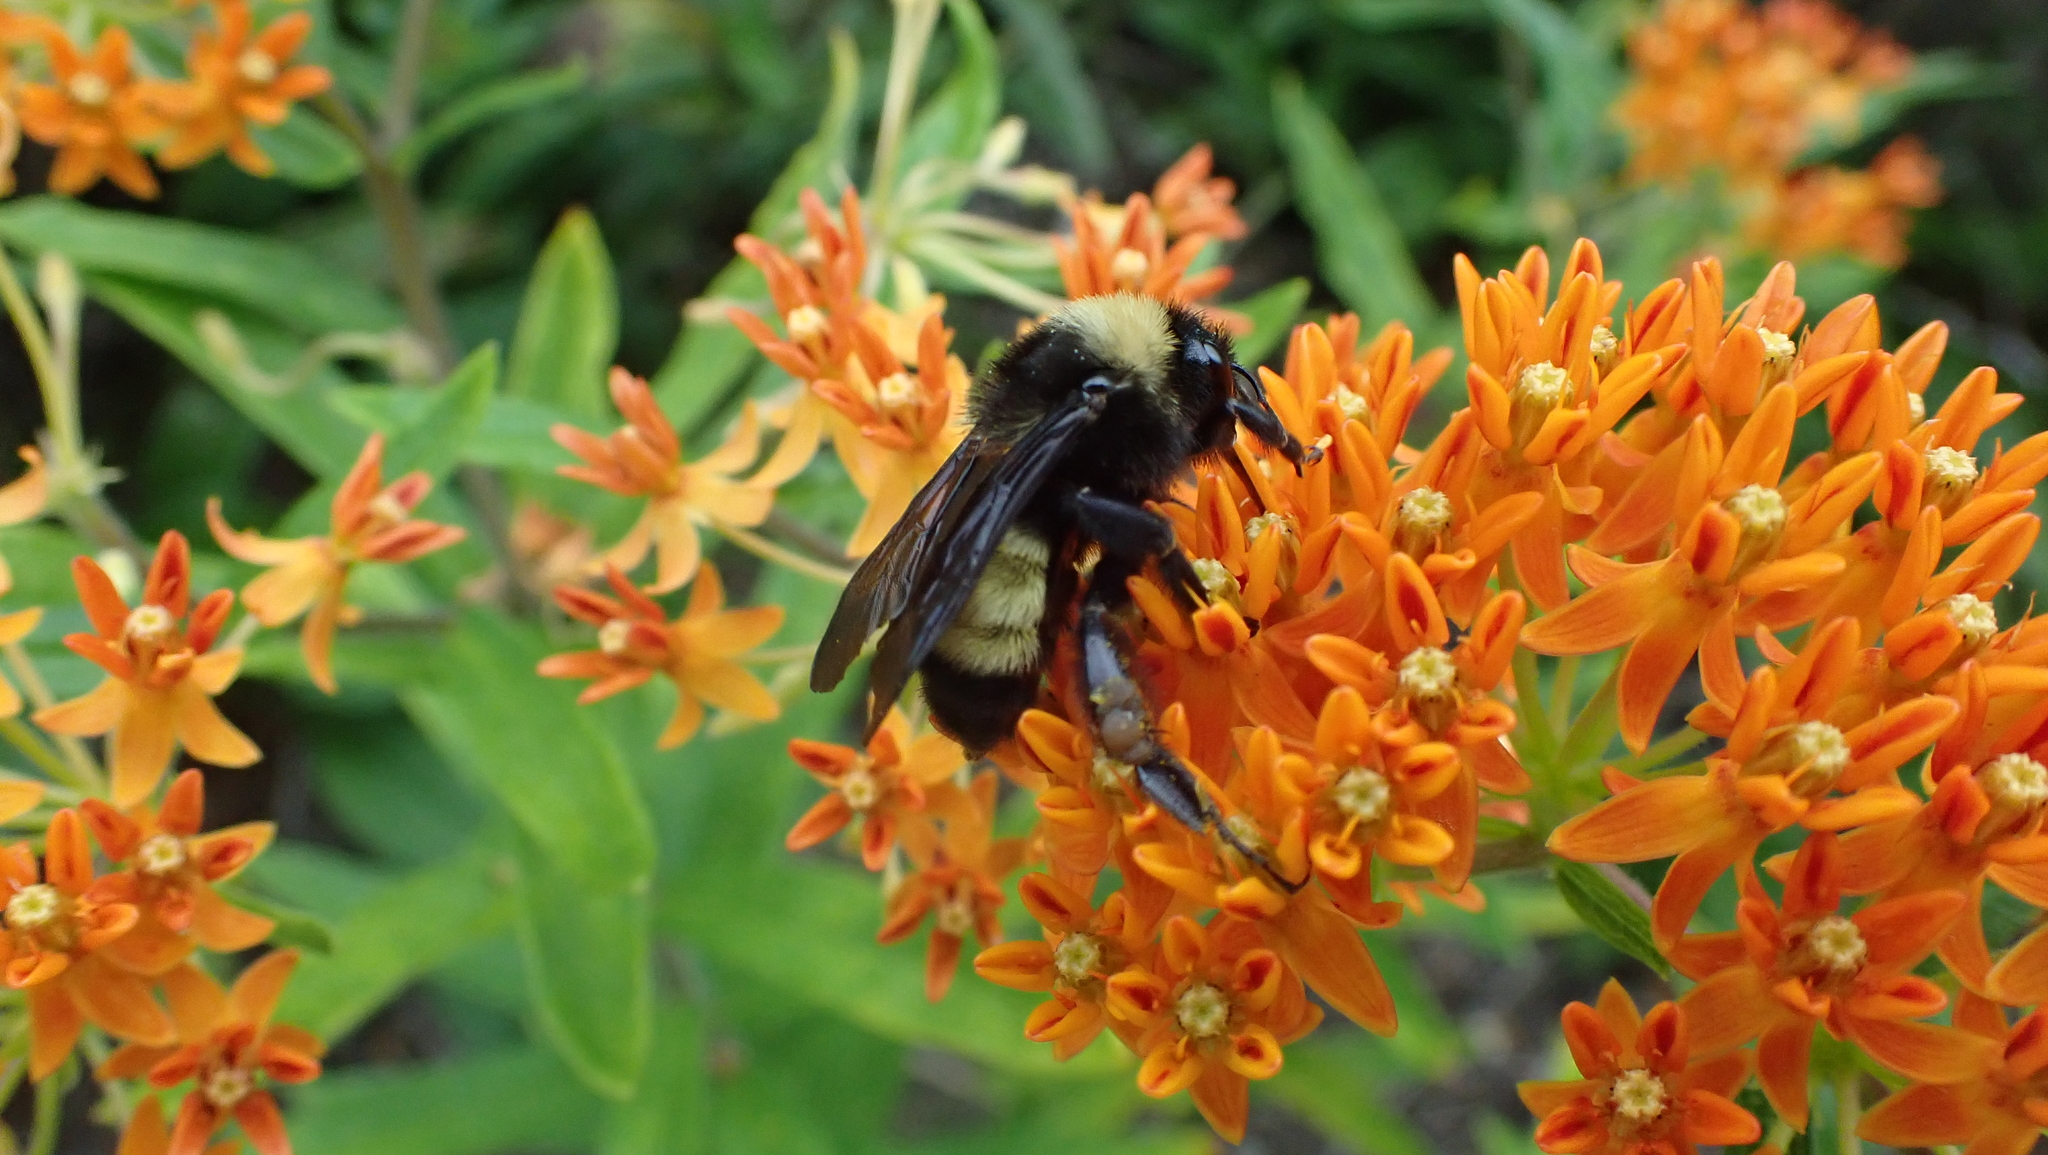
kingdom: Animalia
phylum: Arthropoda
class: Insecta
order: Hymenoptera
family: Apidae
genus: Bombus
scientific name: Bombus pensylvanicus
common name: Bumble bee
